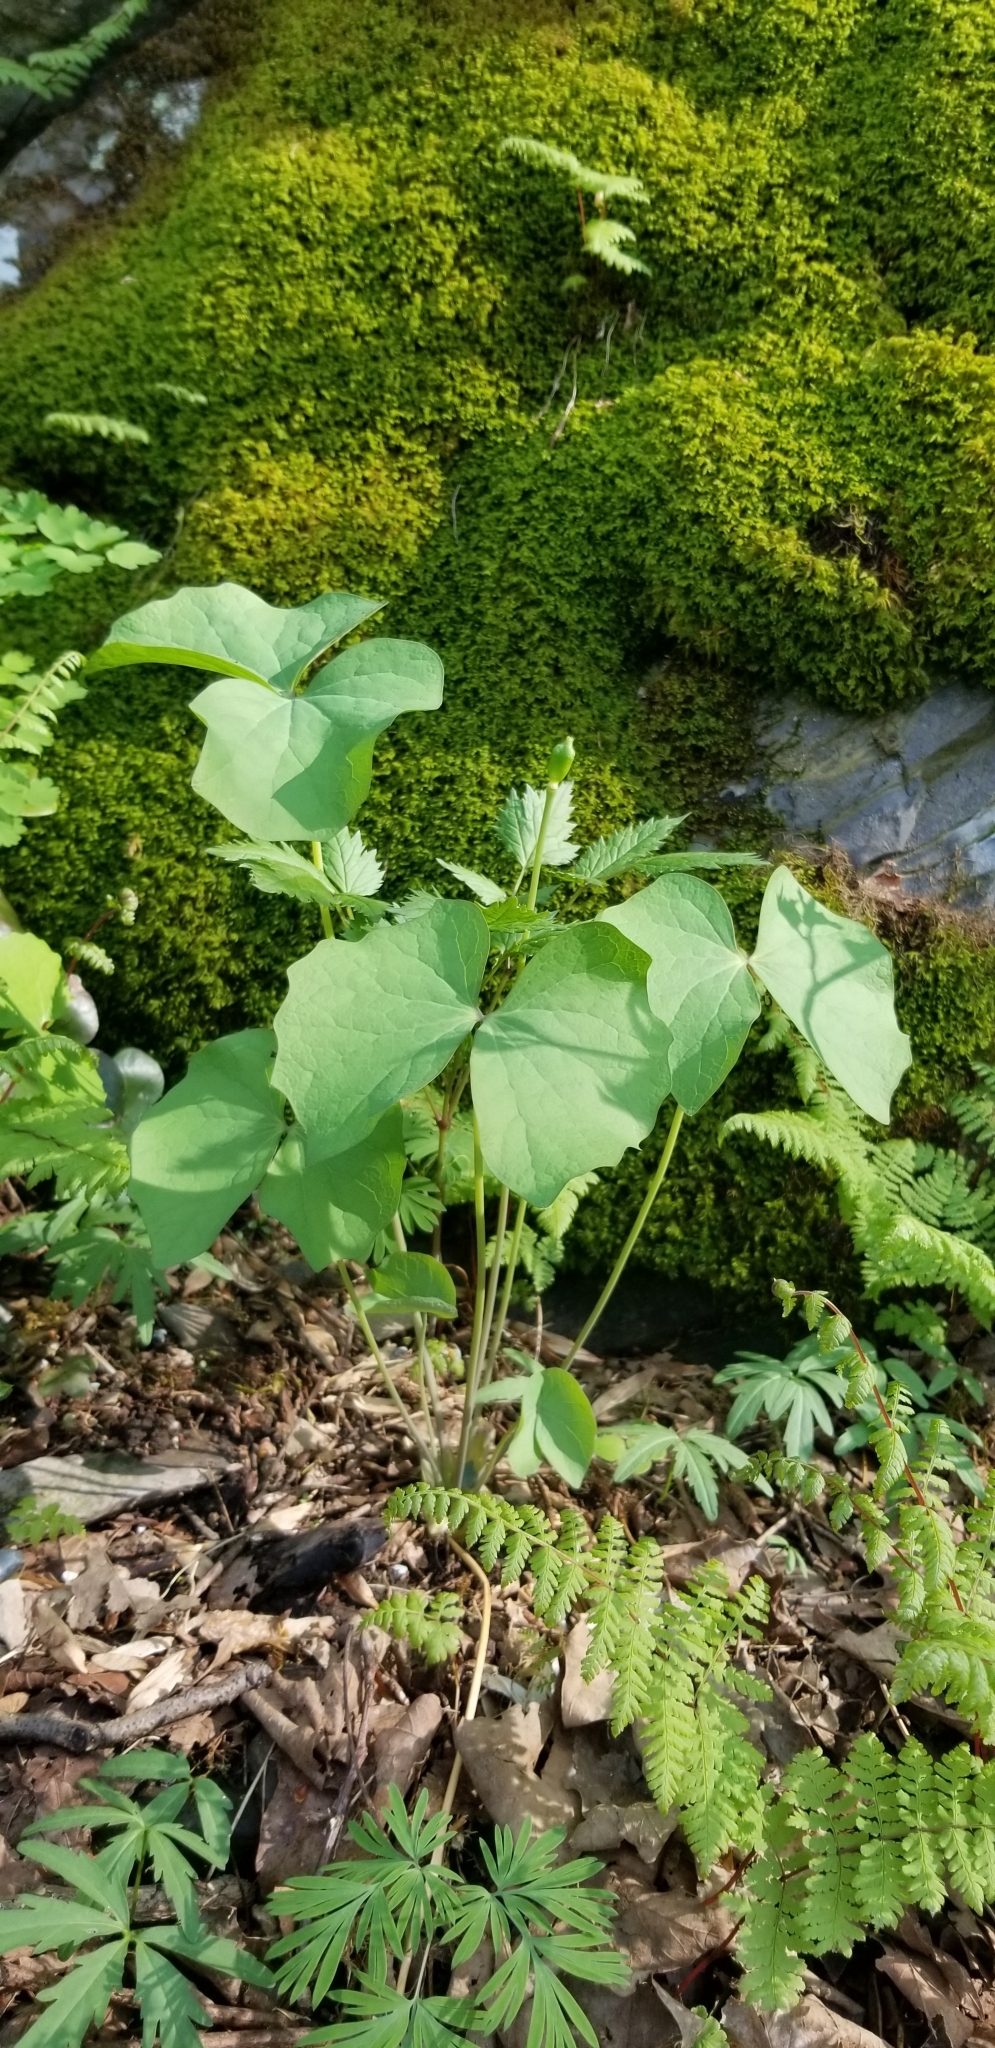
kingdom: Plantae
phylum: Tracheophyta
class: Magnoliopsida
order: Ranunculales
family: Berberidaceae
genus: Jeffersonia
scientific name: Jeffersonia diphylla
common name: Rheumatism-root
